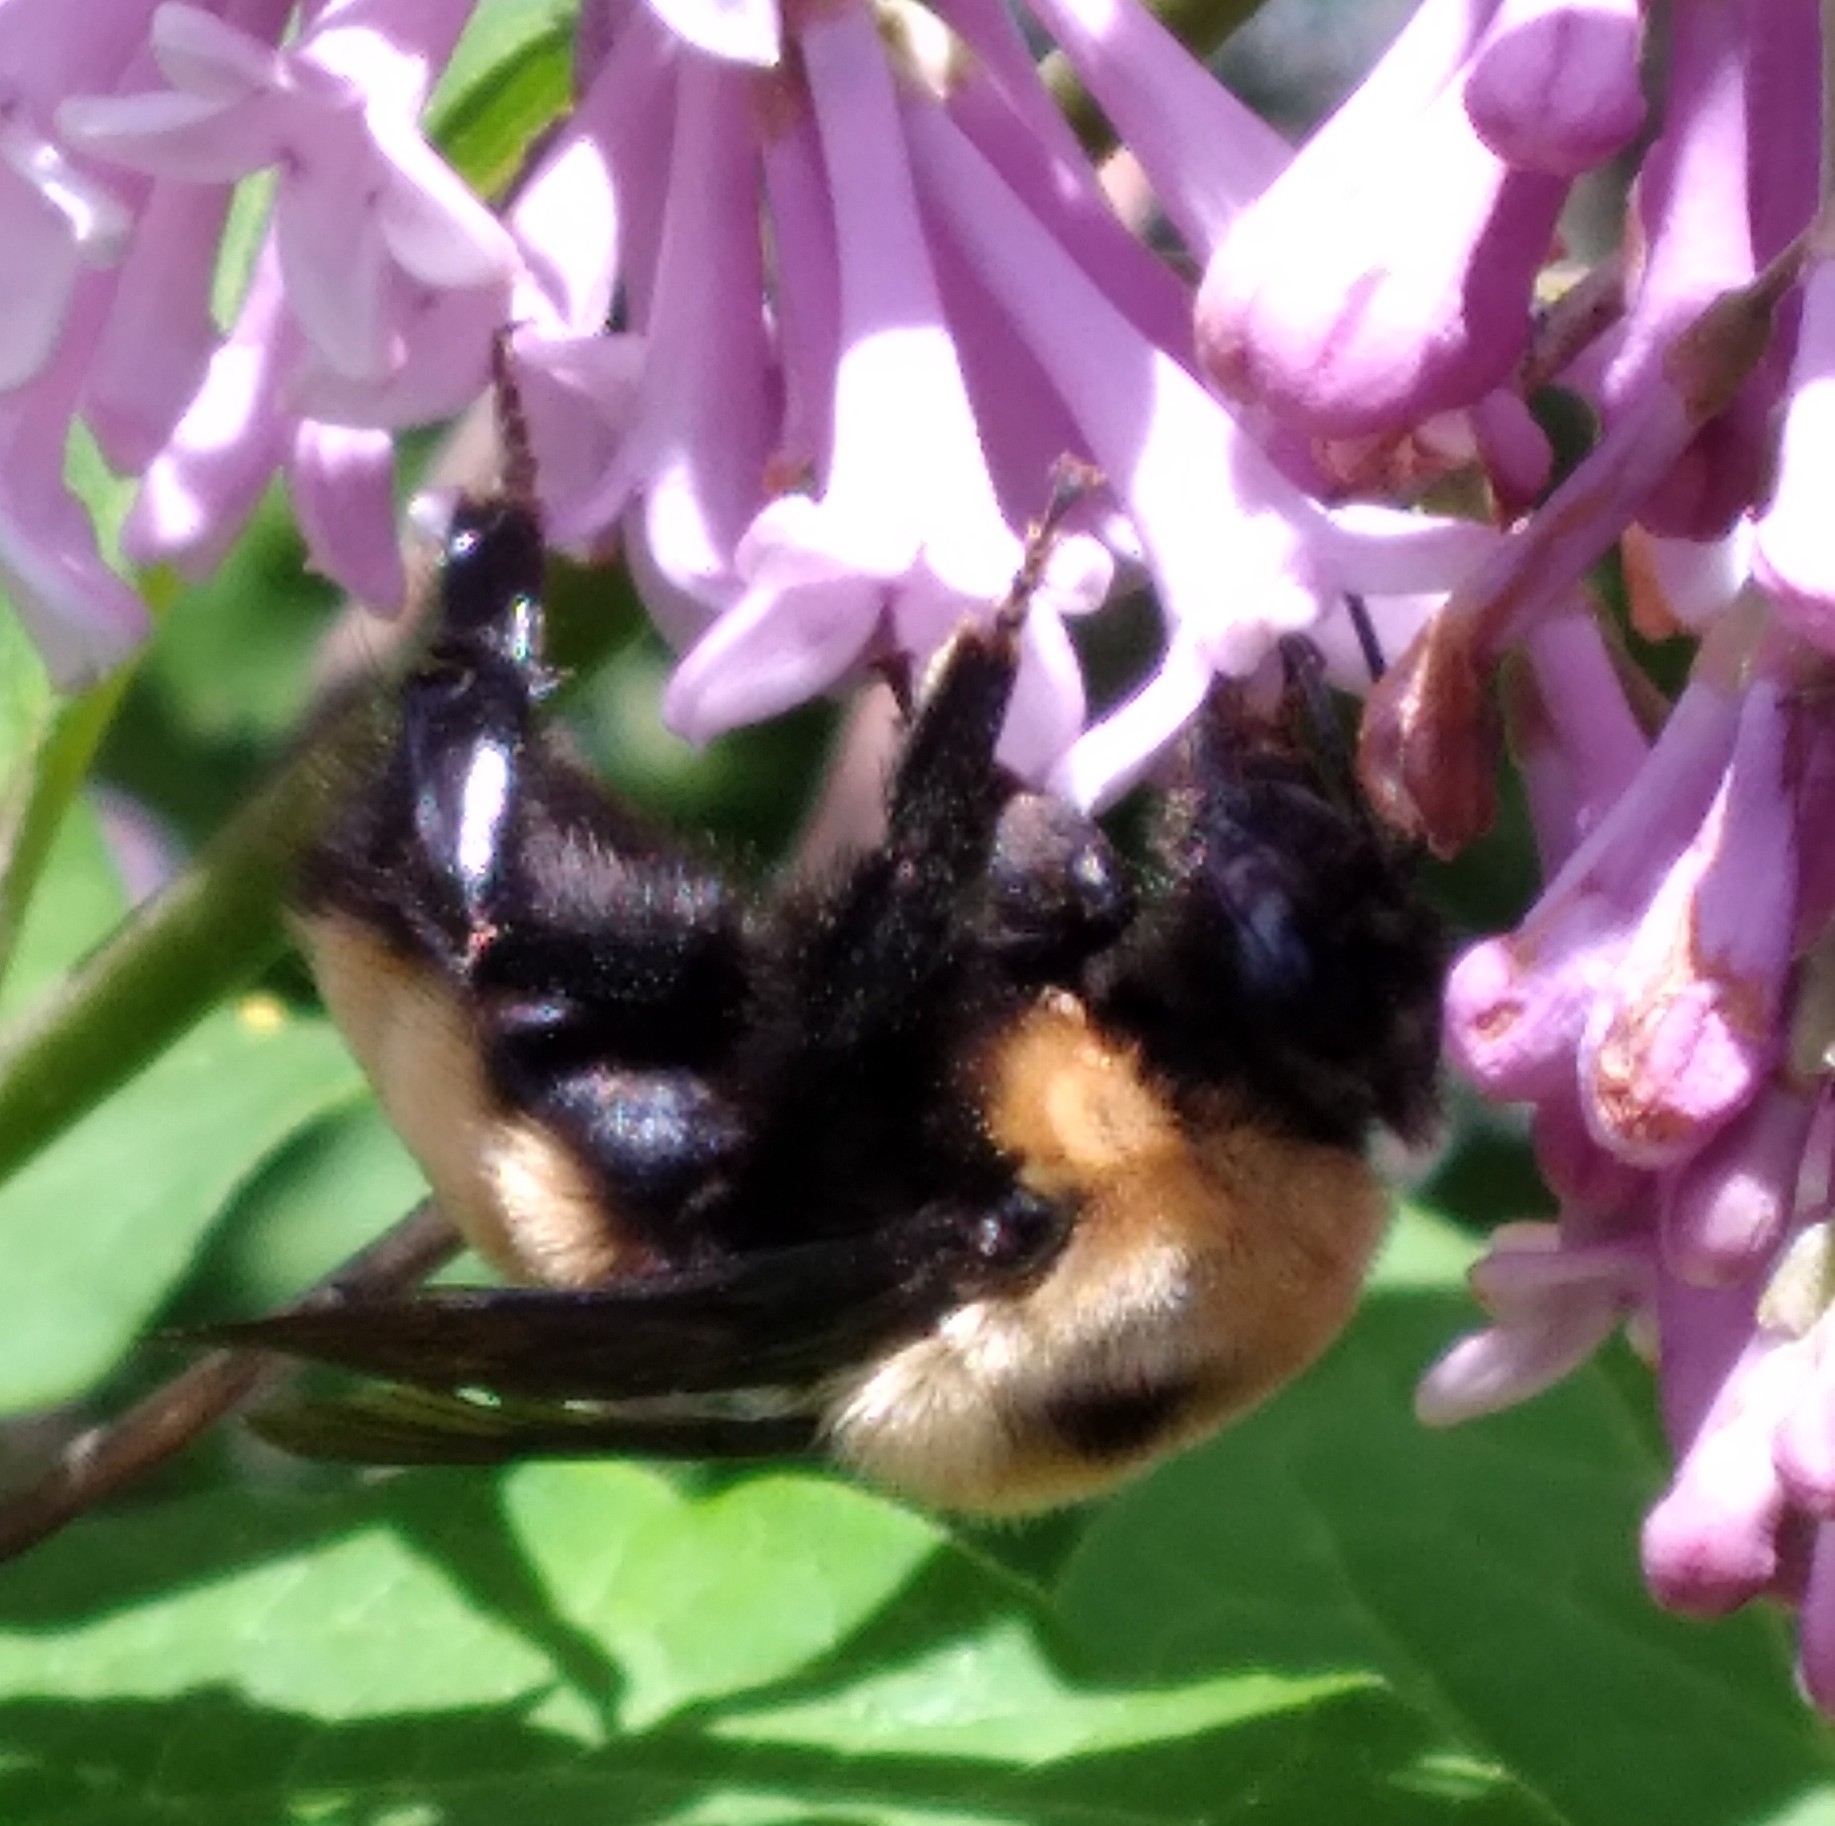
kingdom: Animalia
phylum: Arthropoda
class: Insecta
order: Hymenoptera
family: Apidae
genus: Bombus
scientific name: Bombus nevadensis
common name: Nevada bumble bee
